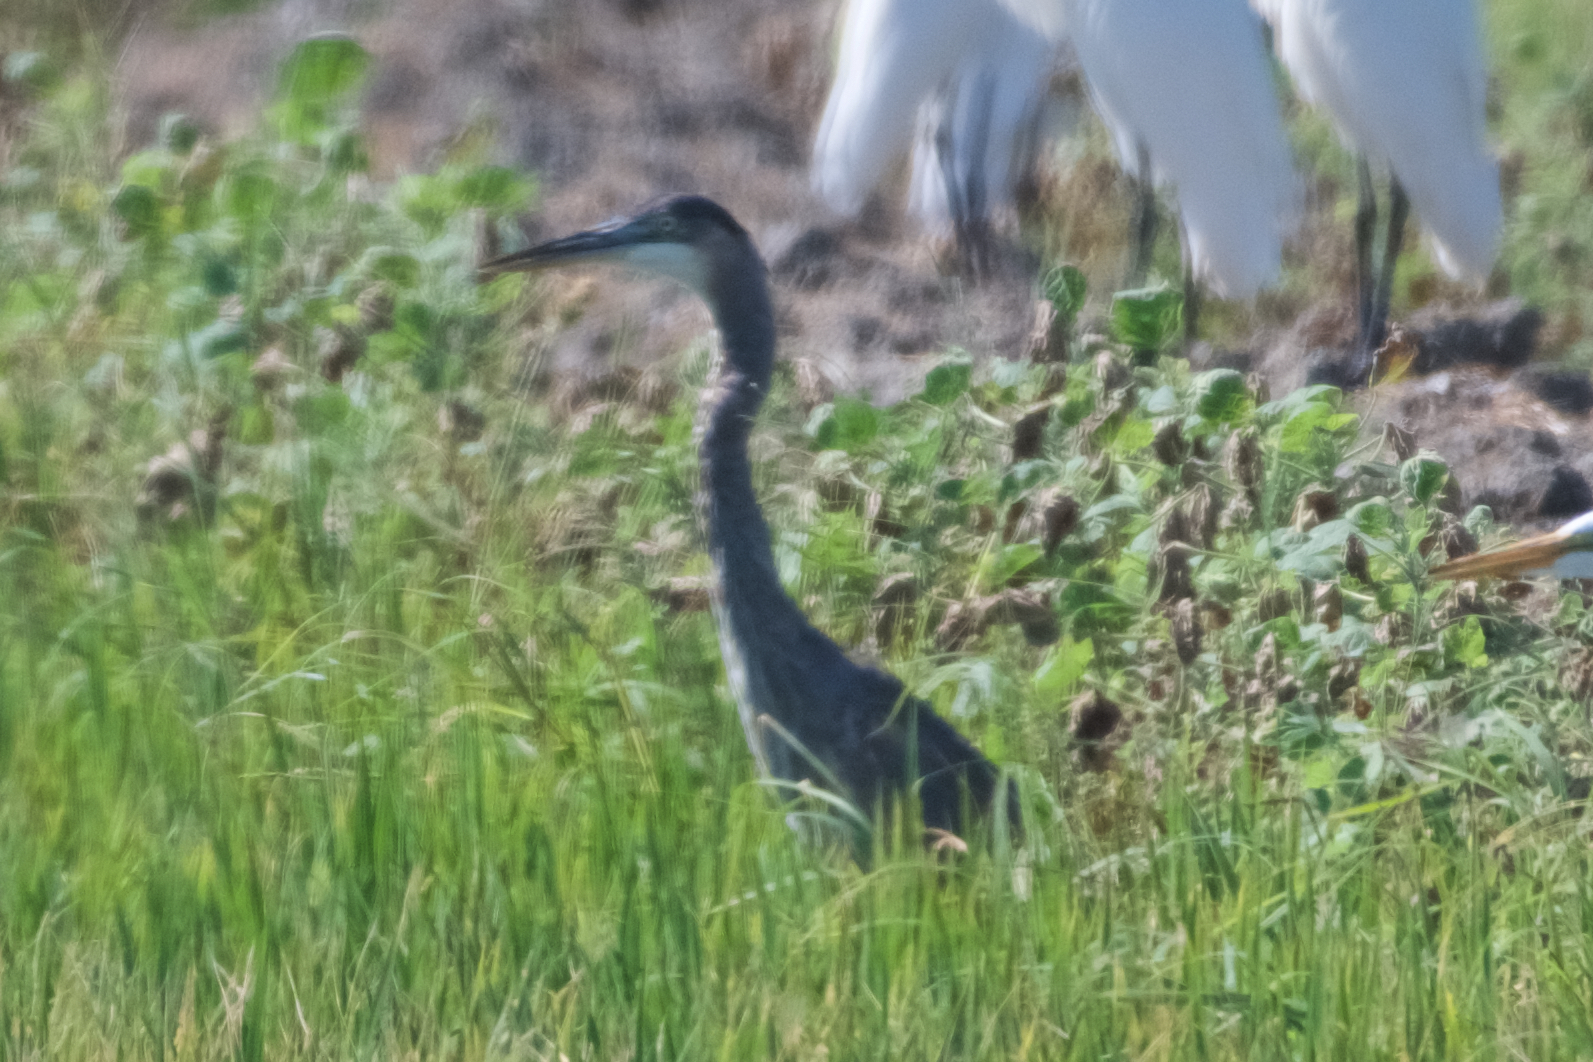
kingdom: Animalia
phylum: Chordata
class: Aves
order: Pelecaniformes
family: Ardeidae
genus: Ardea
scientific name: Ardea herodias
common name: Great blue heron
